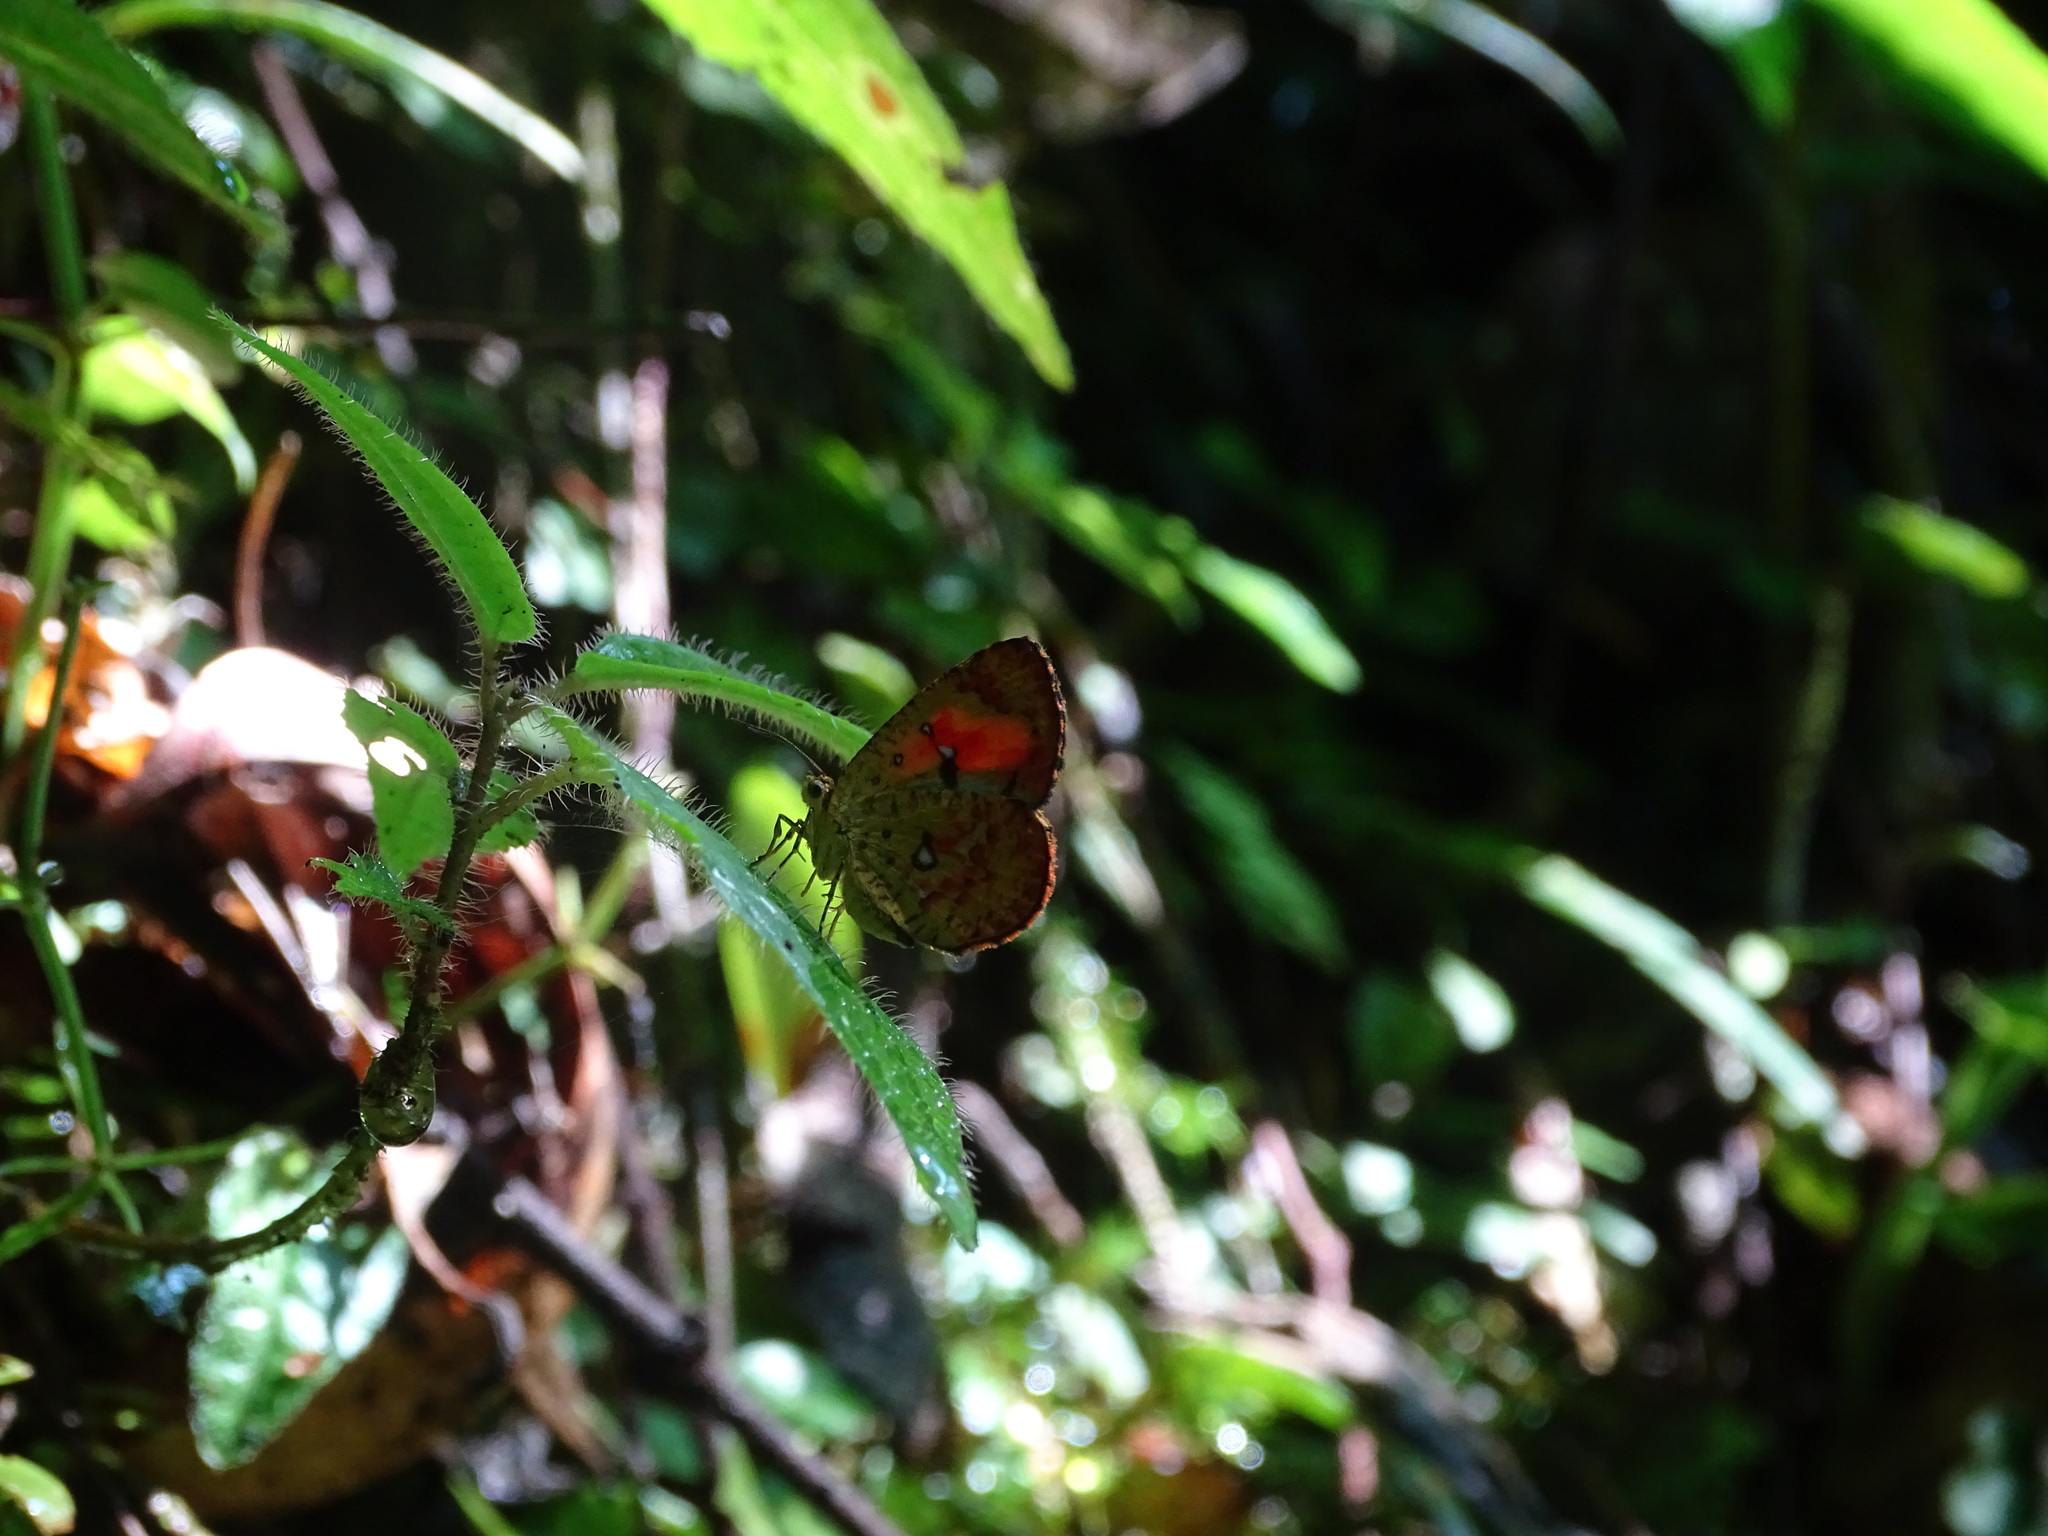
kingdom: Animalia
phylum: Arthropoda
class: Insecta
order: Lepidoptera
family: Callidulidae
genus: Callidula
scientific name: Callidula jucunda
